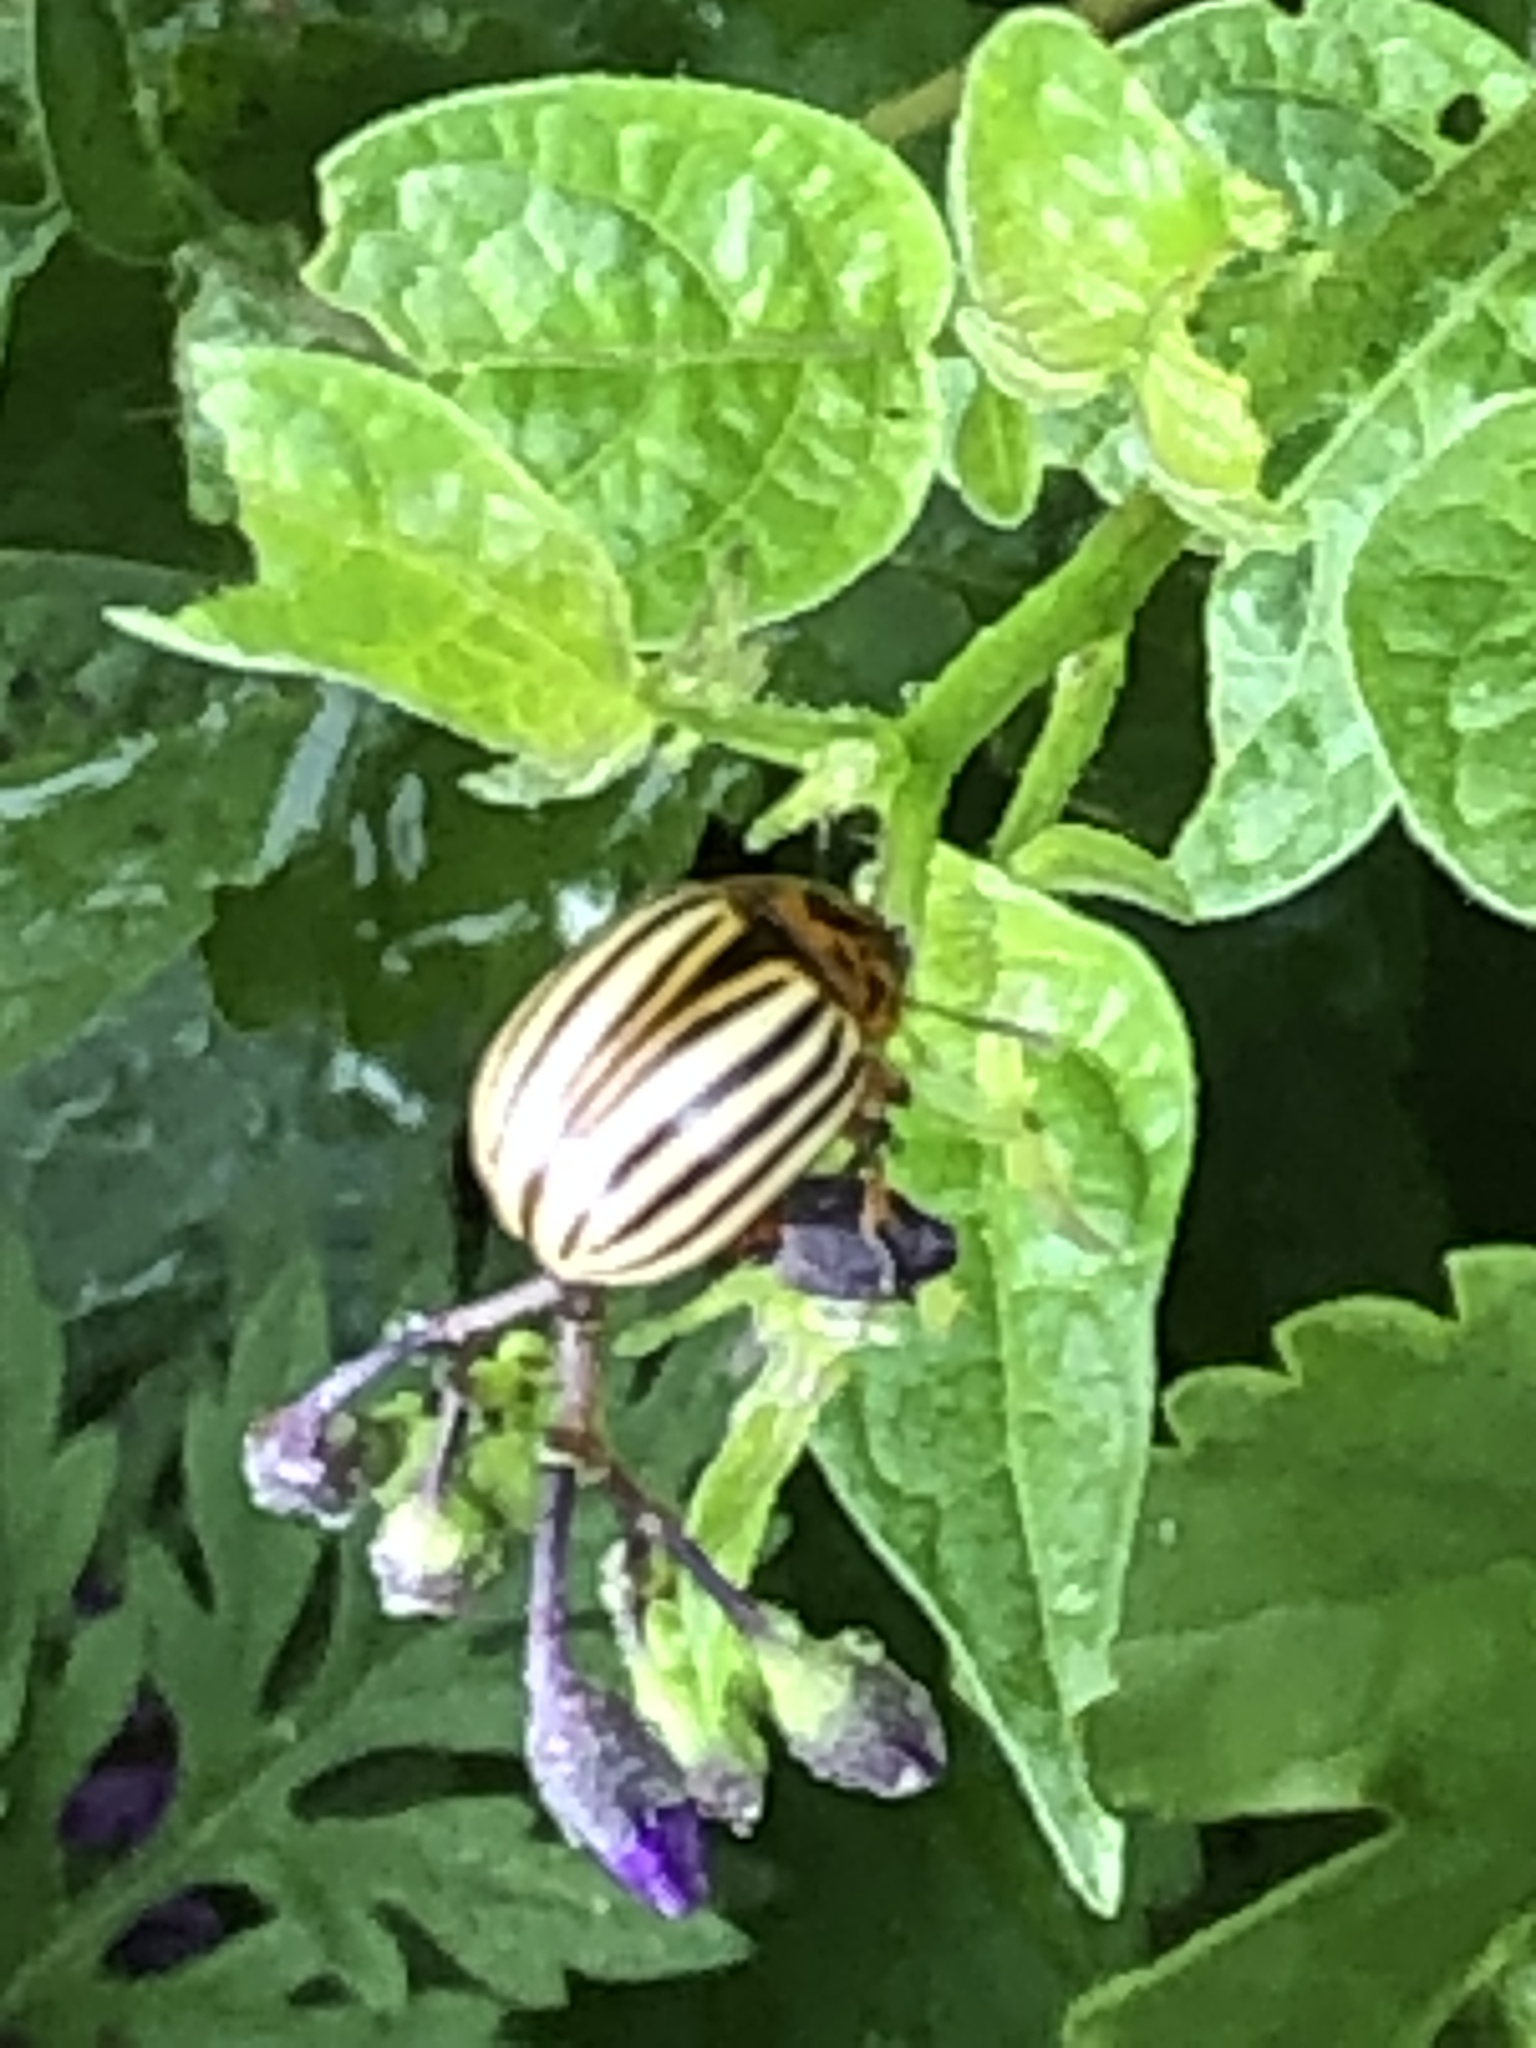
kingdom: Animalia
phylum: Arthropoda
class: Insecta
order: Coleoptera
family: Chrysomelidae
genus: Leptinotarsa
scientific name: Leptinotarsa decemlineata
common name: Colorado potato beetle
